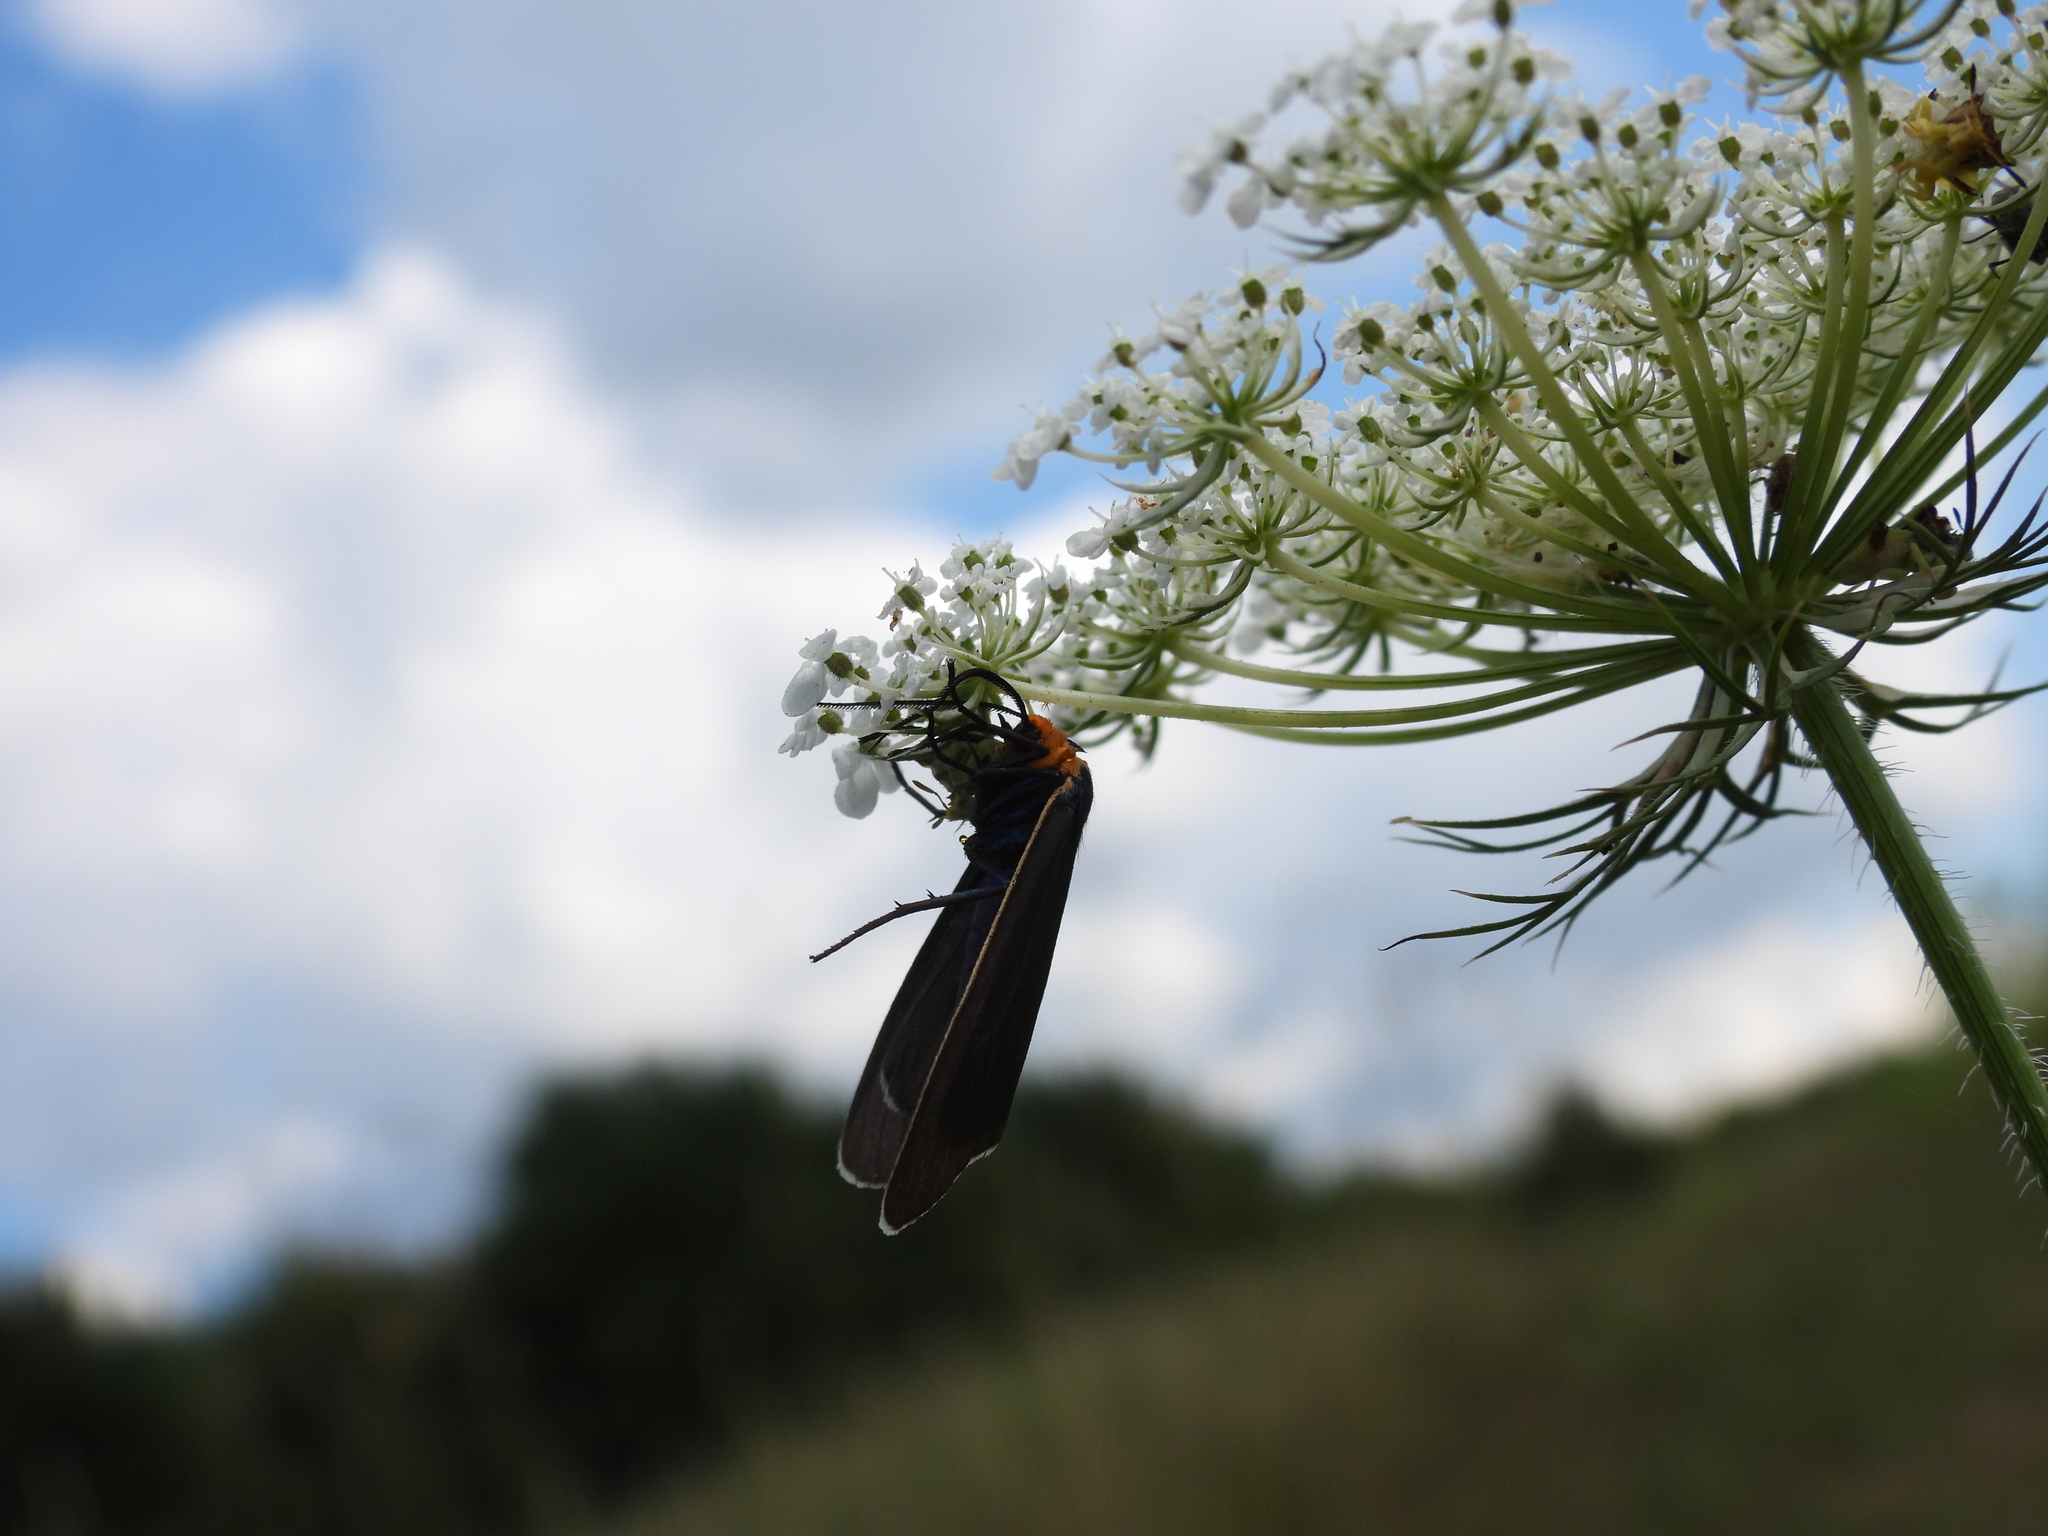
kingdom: Animalia
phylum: Arthropoda
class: Insecta
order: Lepidoptera
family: Erebidae
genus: Ctenucha
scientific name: Ctenucha virginica
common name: Virginia ctenucha moth
